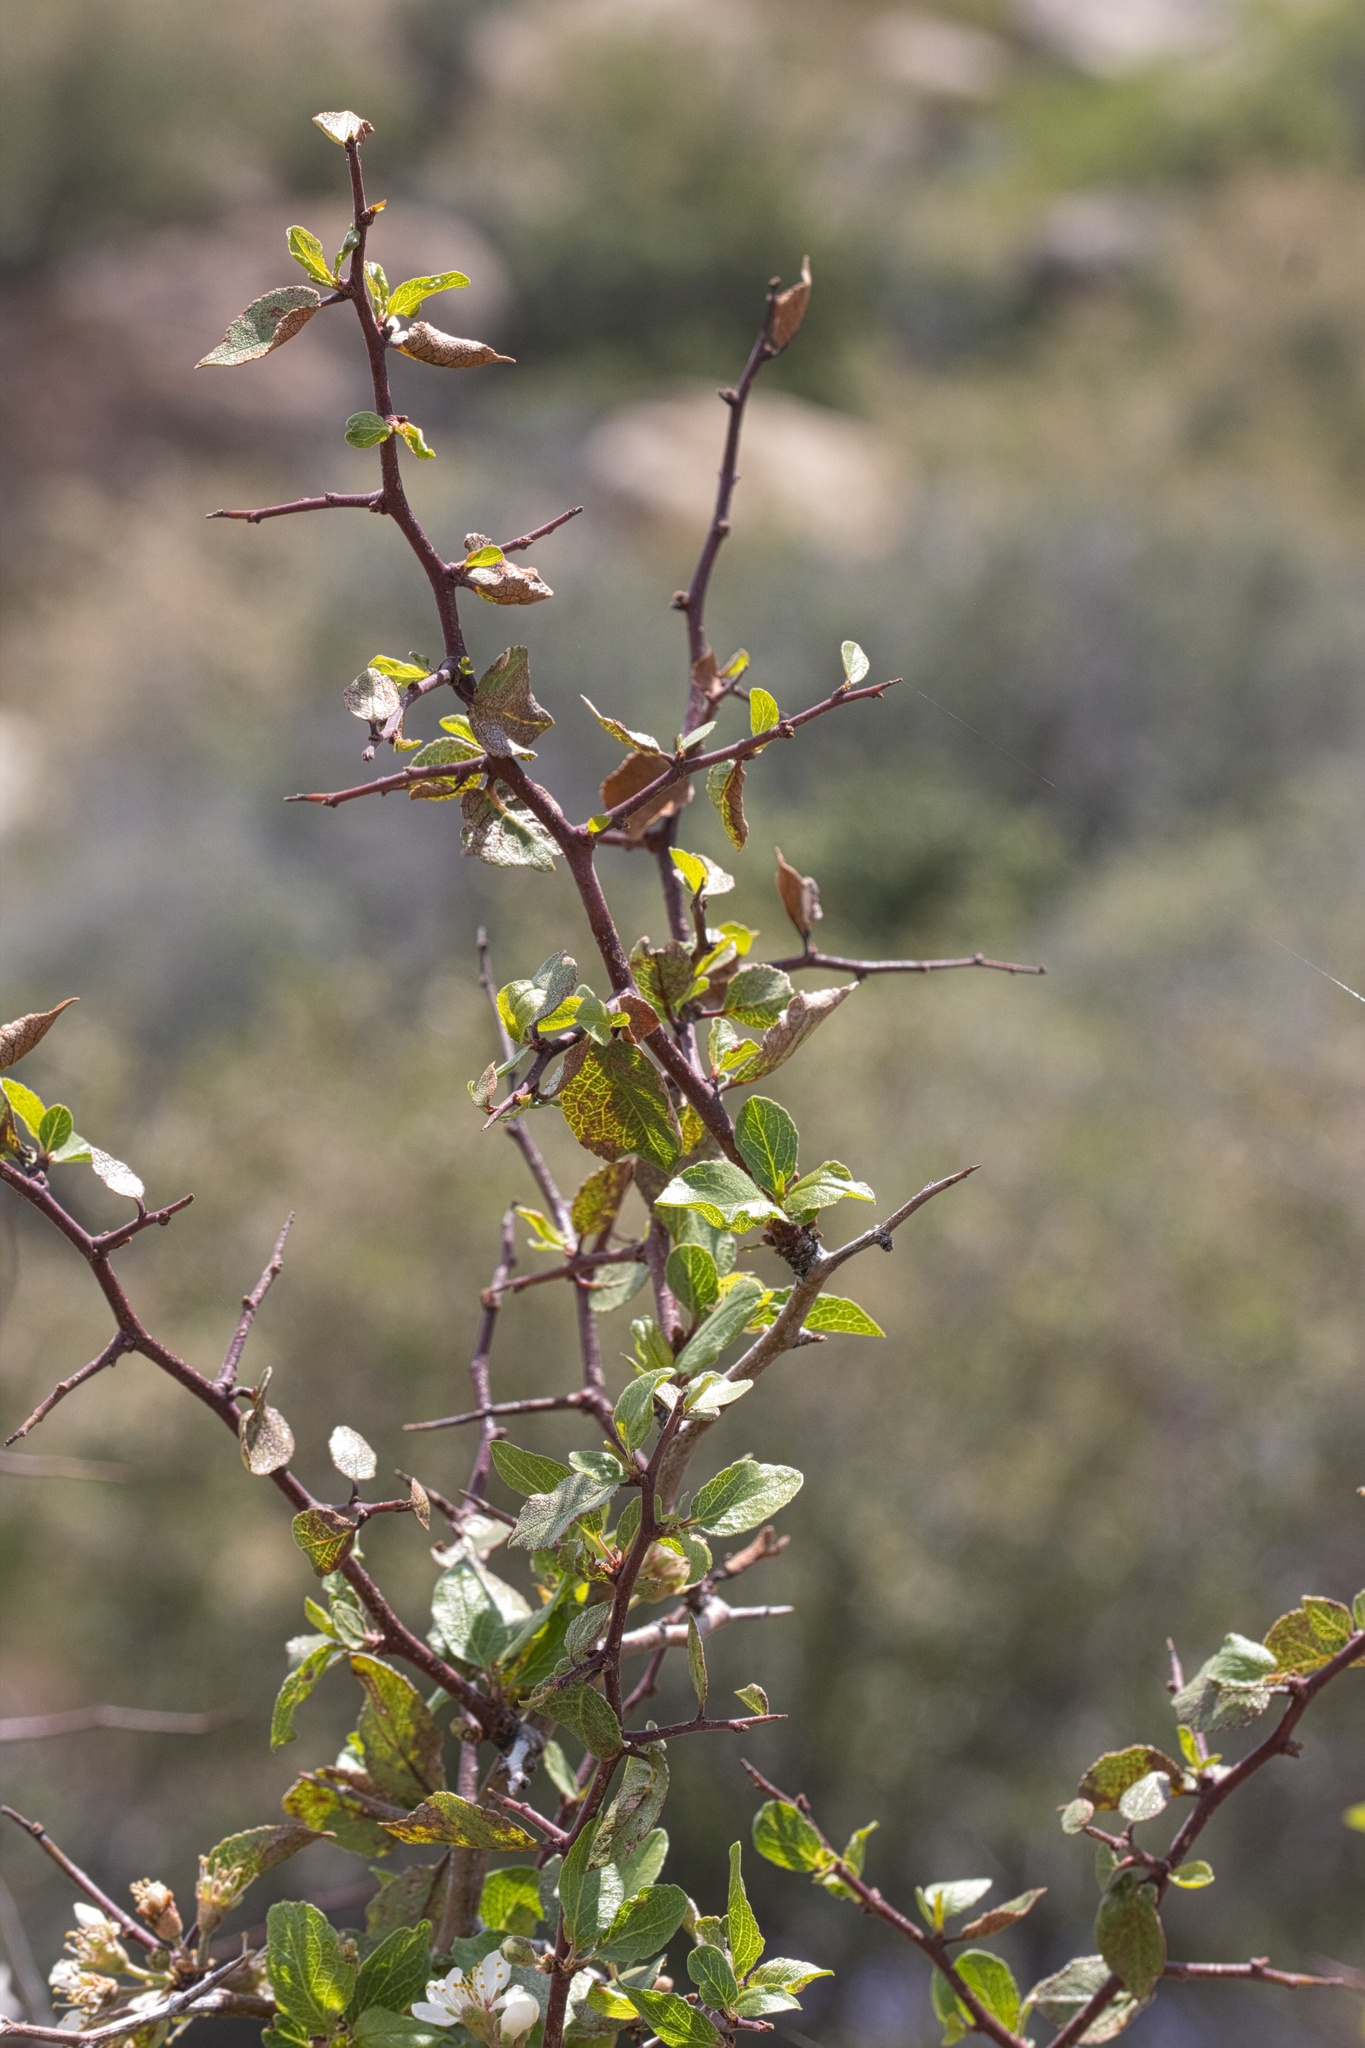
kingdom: Plantae
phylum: Tracheophyta
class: Magnoliopsida
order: Rosales
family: Rosaceae
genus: Prunus
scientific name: Prunus fremontii
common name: Desert apricot
